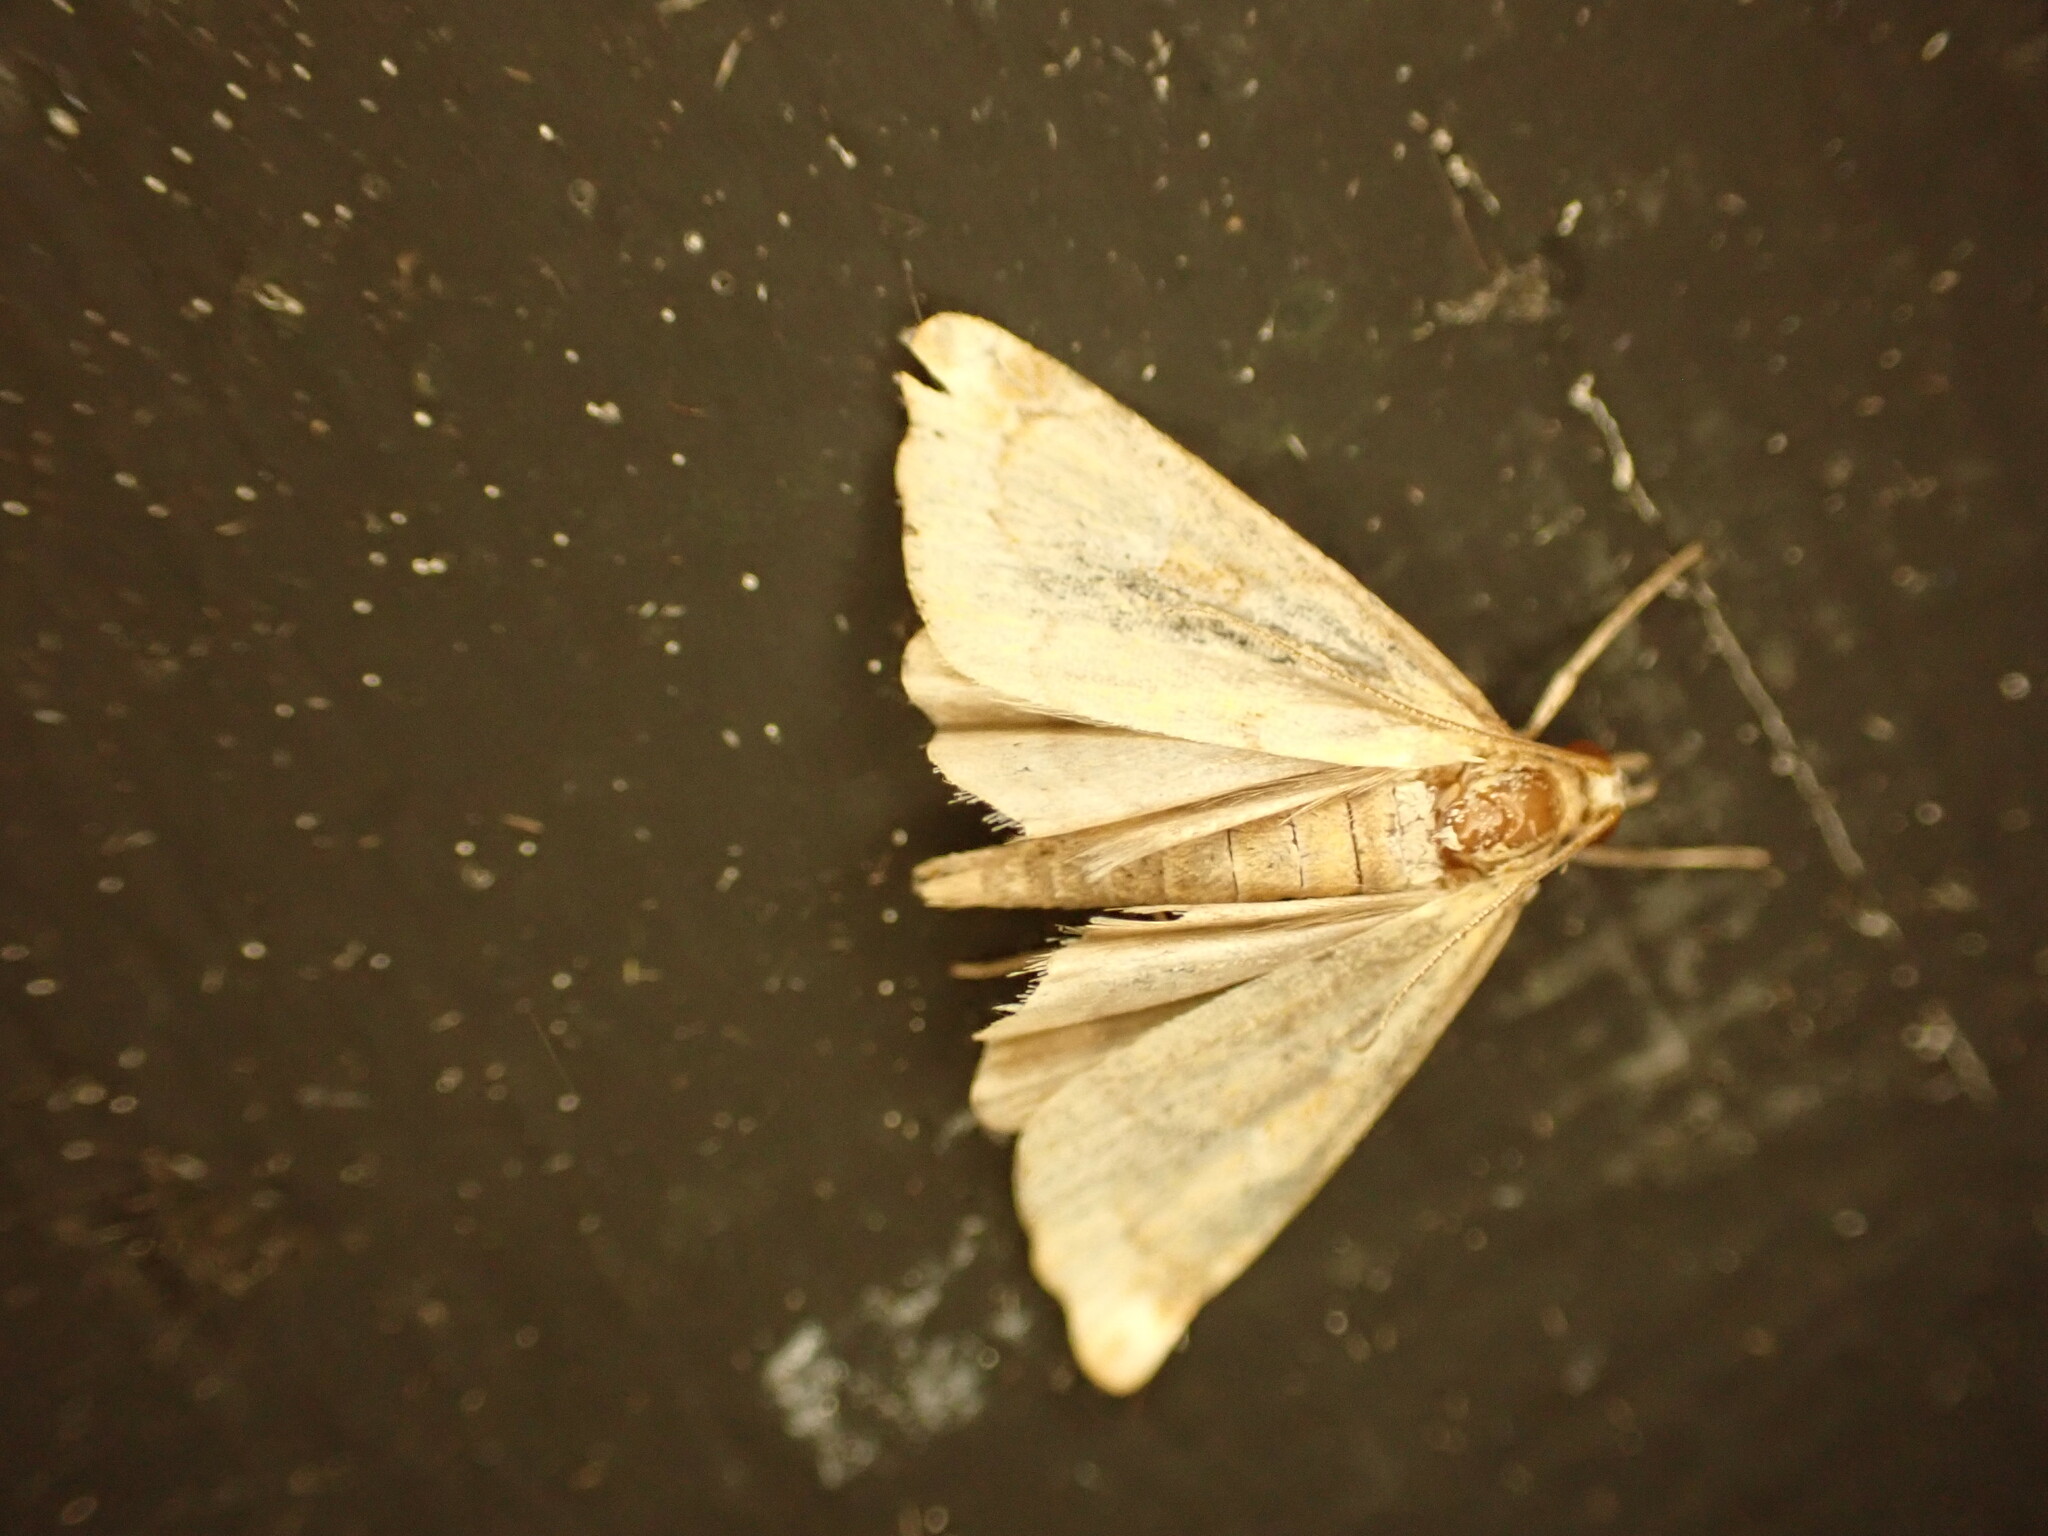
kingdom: Animalia
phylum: Arthropoda
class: Insecta
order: Lepidoptera
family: Erebidae
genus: Rhapsa
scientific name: Rhapsa scotosialis
